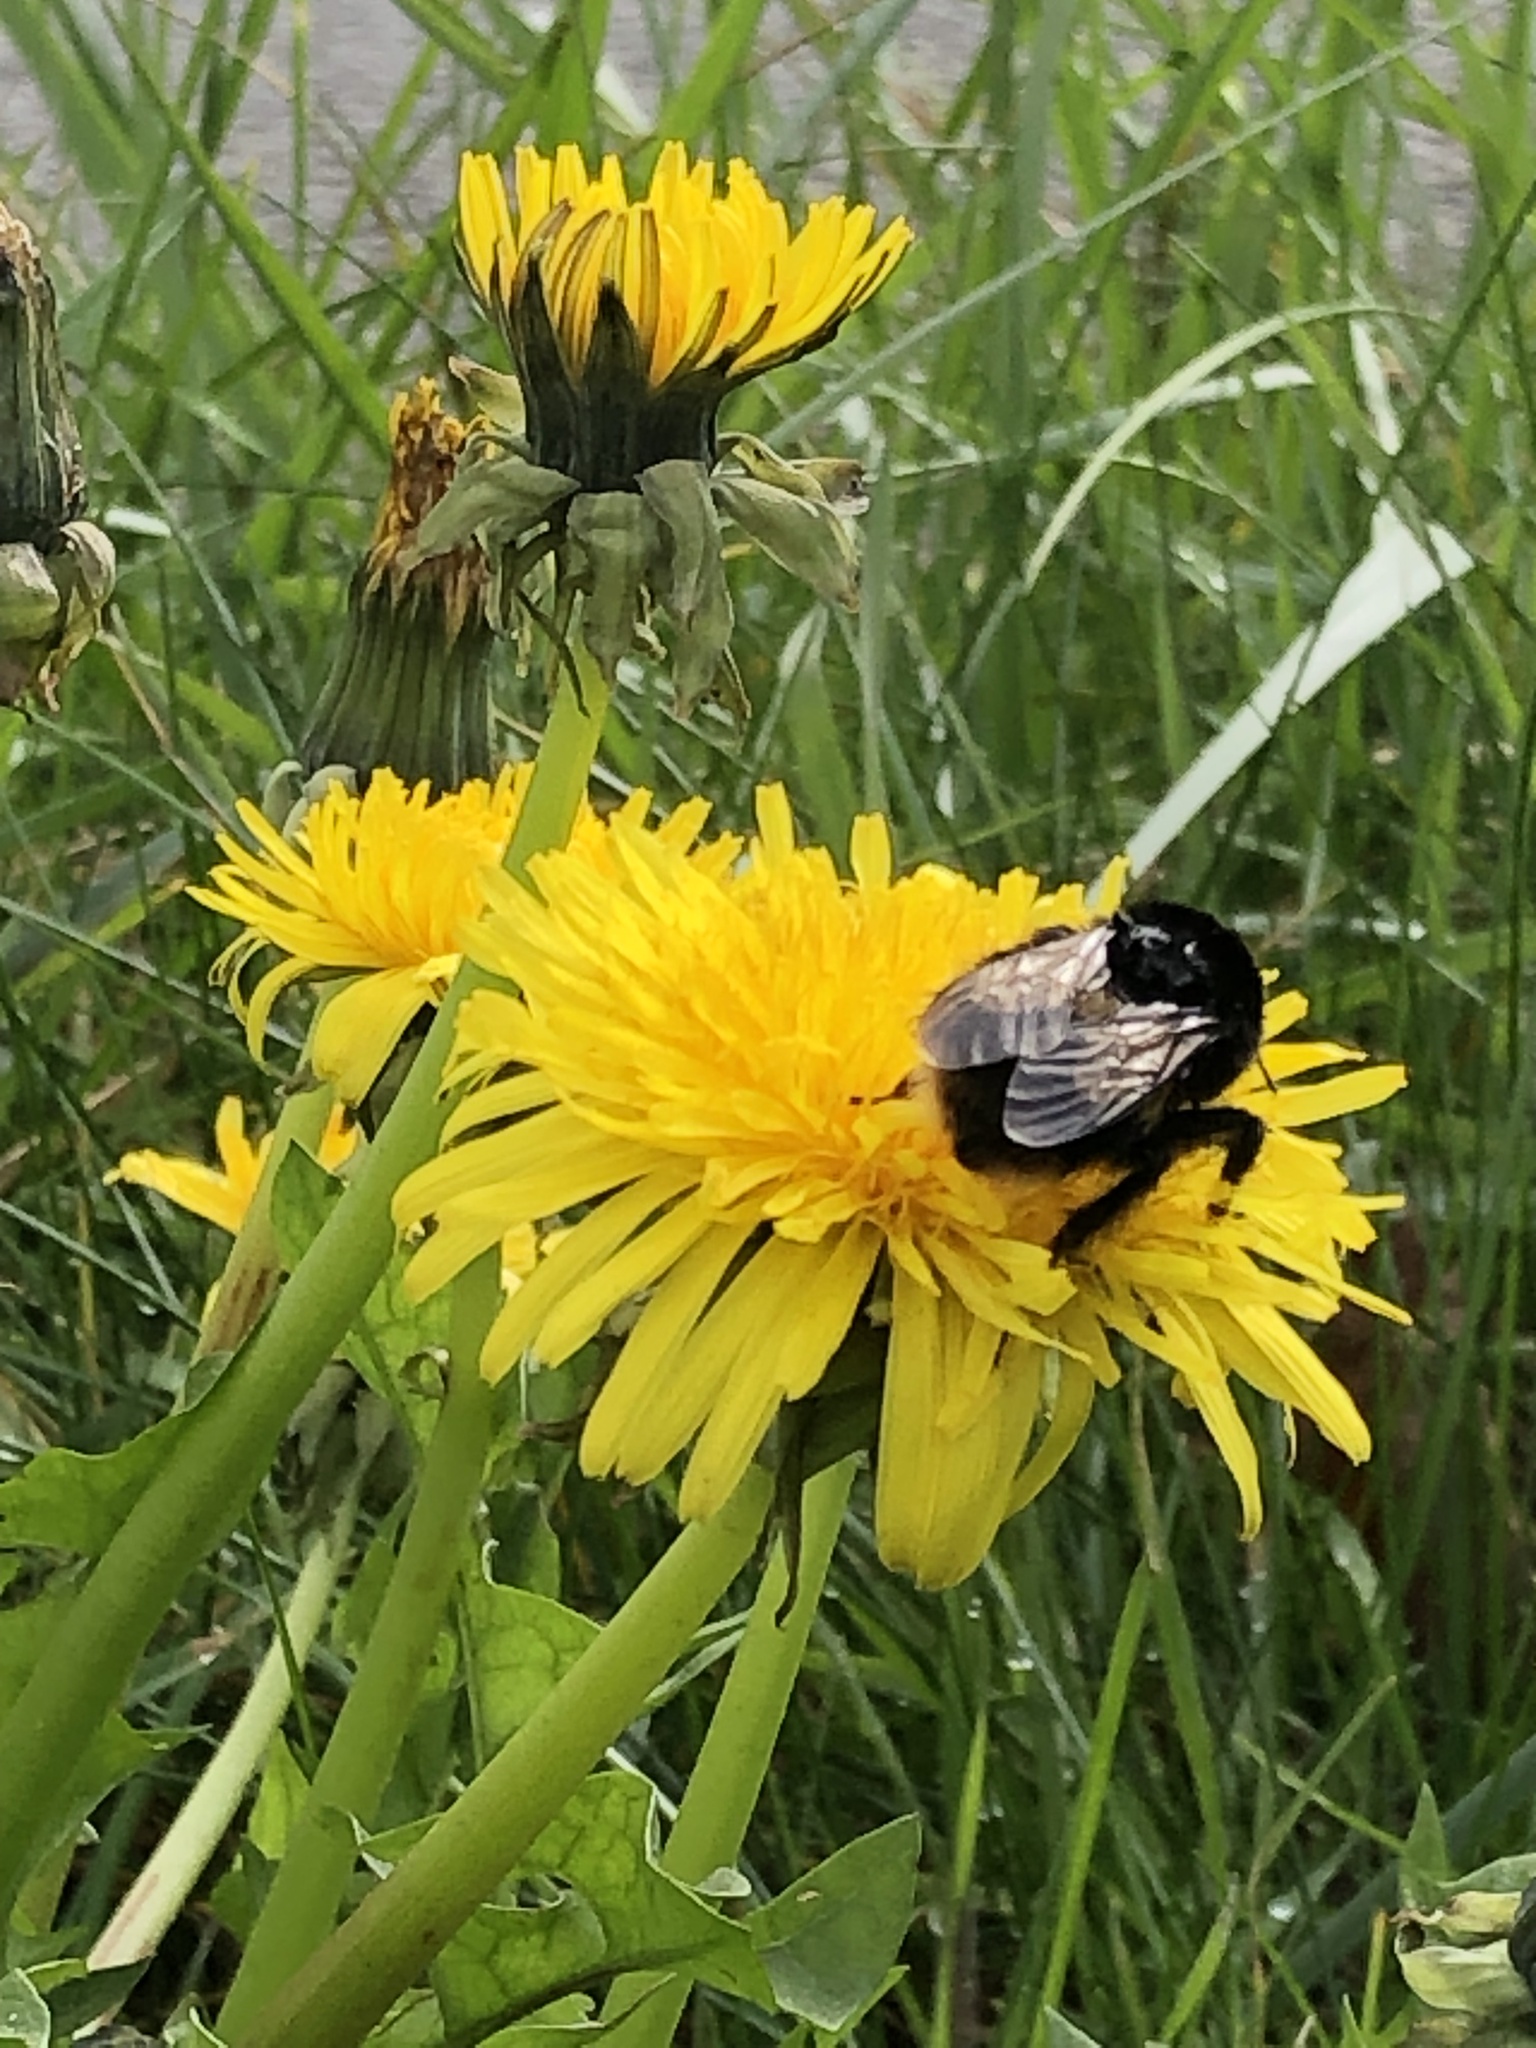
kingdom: Animalia
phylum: Arthropoda
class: Insecta
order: Hymenoptera
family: Apidae
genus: Bombus
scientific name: Bombus terrestris
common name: Buff-tailed bumblebee
